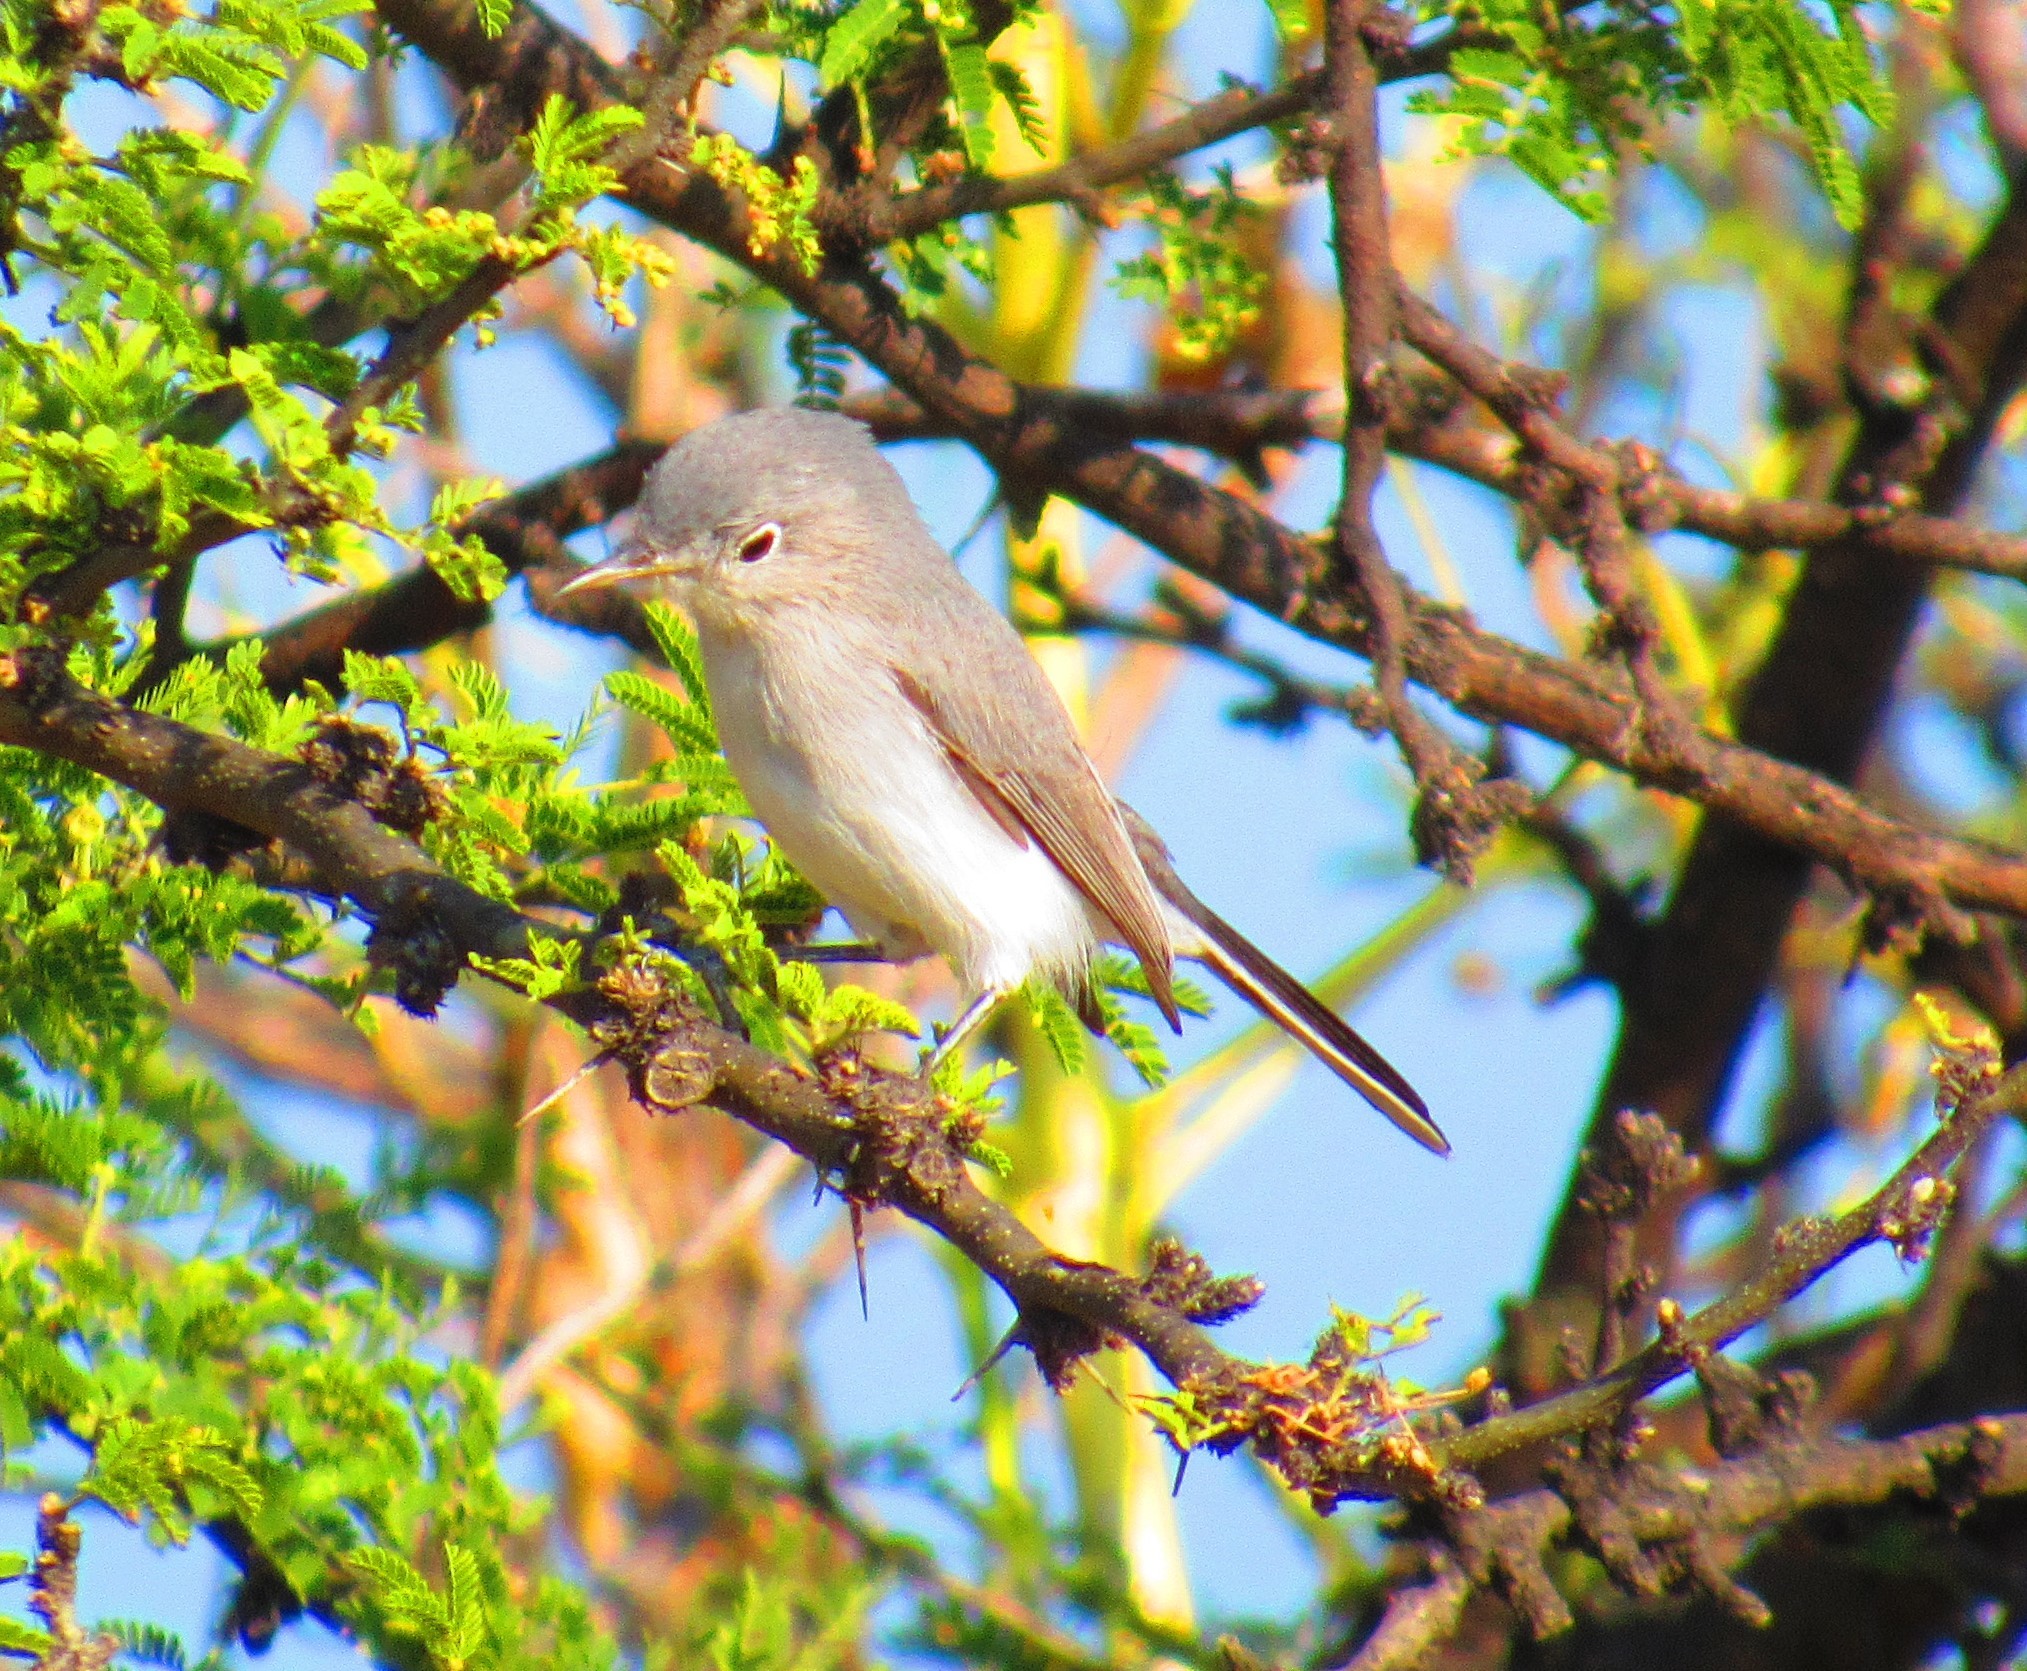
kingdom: Animalia
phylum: Chordata
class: Aves
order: Passeriformes
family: Polioptilidae
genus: Polioptila
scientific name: Polioptila caerulea
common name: Blue-gray gnatcatcher
